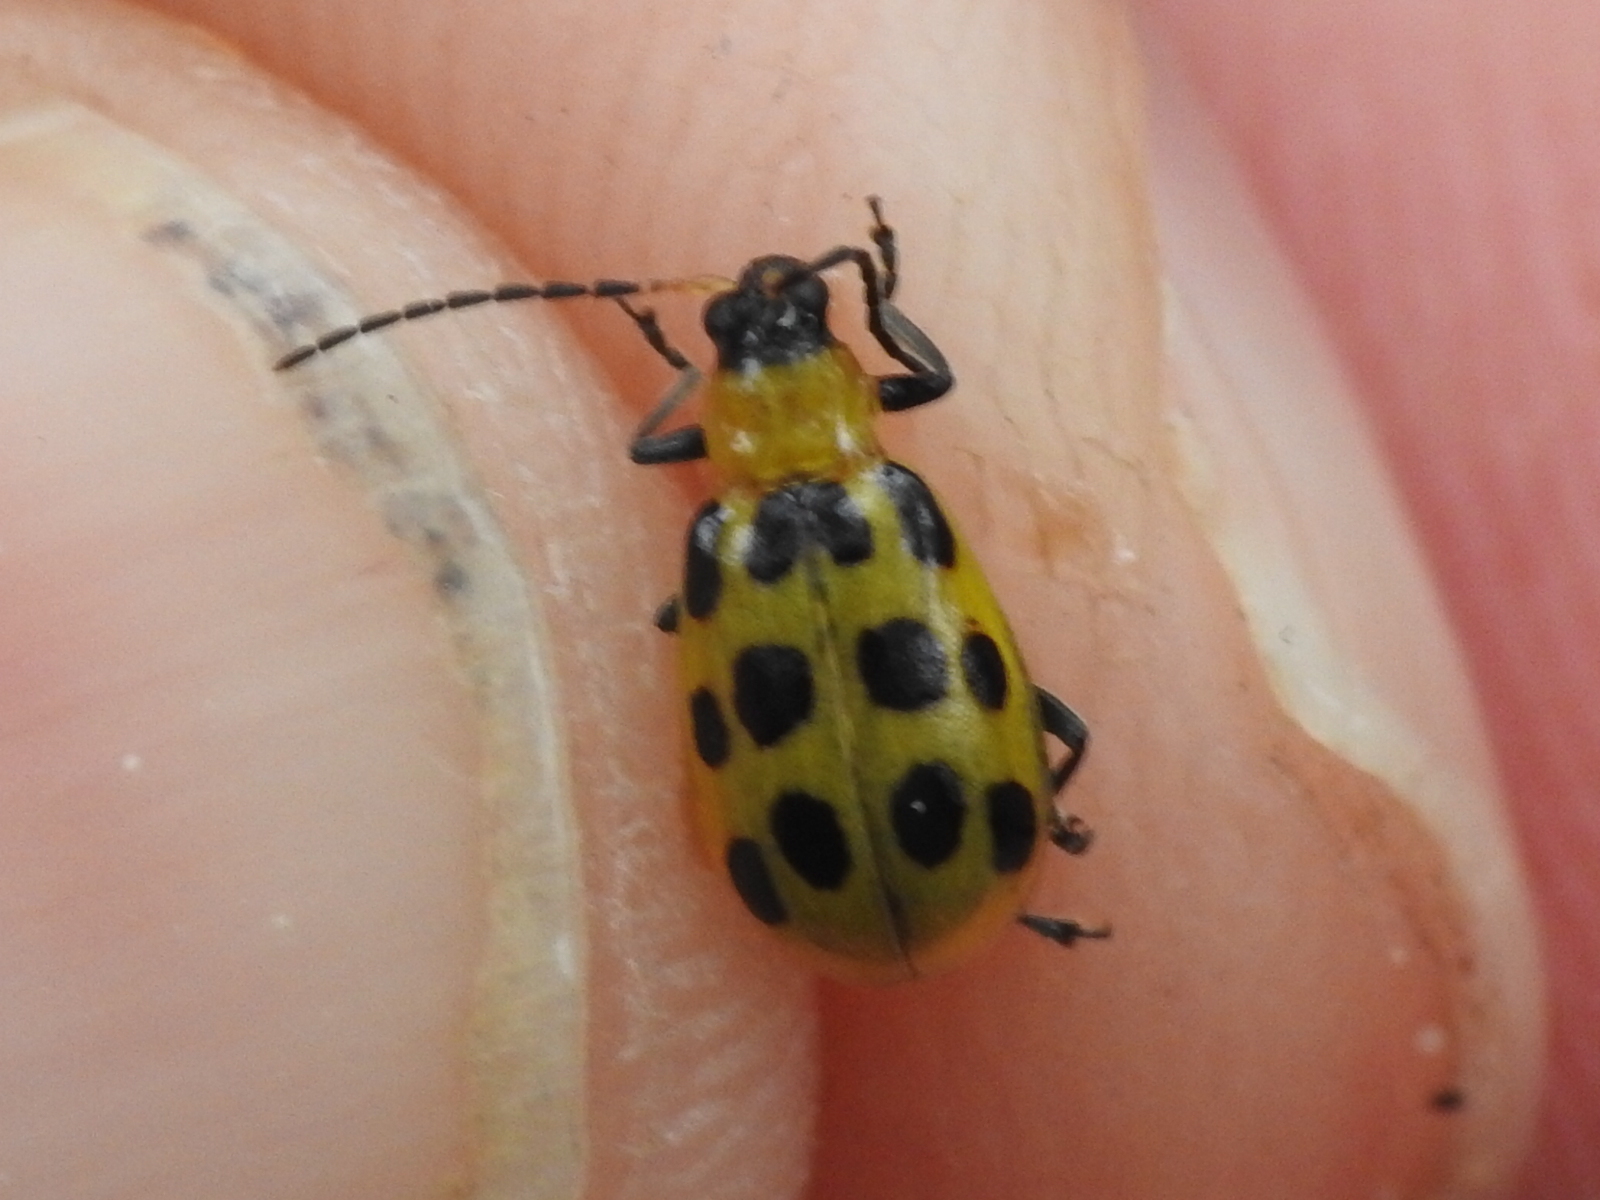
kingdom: Animalia
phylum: Arthropoda
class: Insecta
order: Coleoptera
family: Chrysomelidae
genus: Diabrotica
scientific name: Diabrotica undecimpunctata
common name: Spotted cucumber beetle
